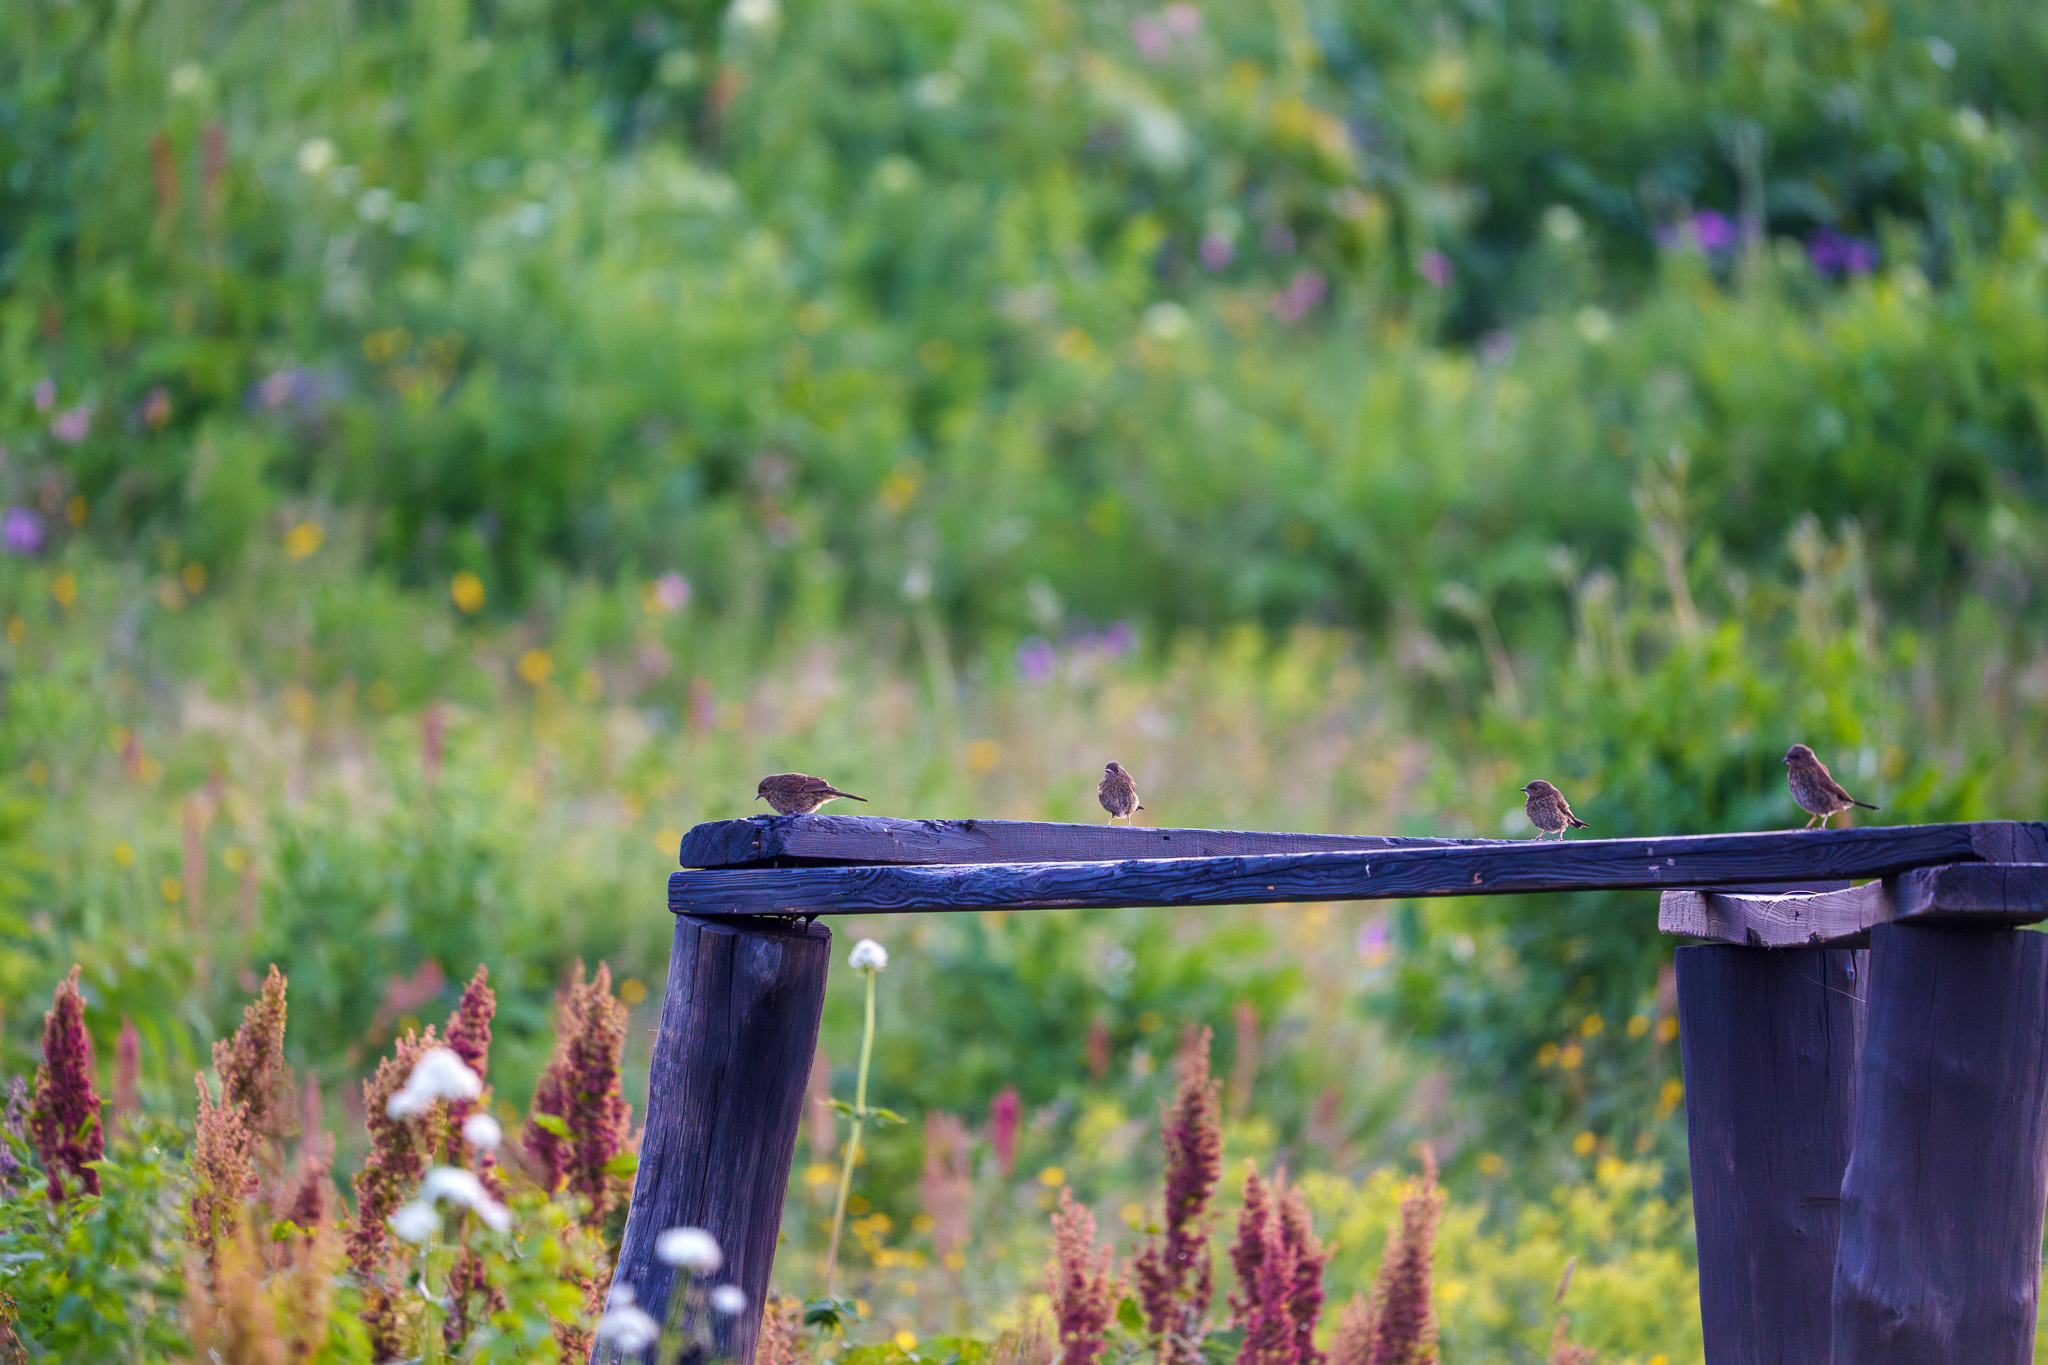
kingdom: Animalia
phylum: Chordata
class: Aves
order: Passeriformes
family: Prunellidae
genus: Prunella
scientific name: Prunella modularis
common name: Dunnock
